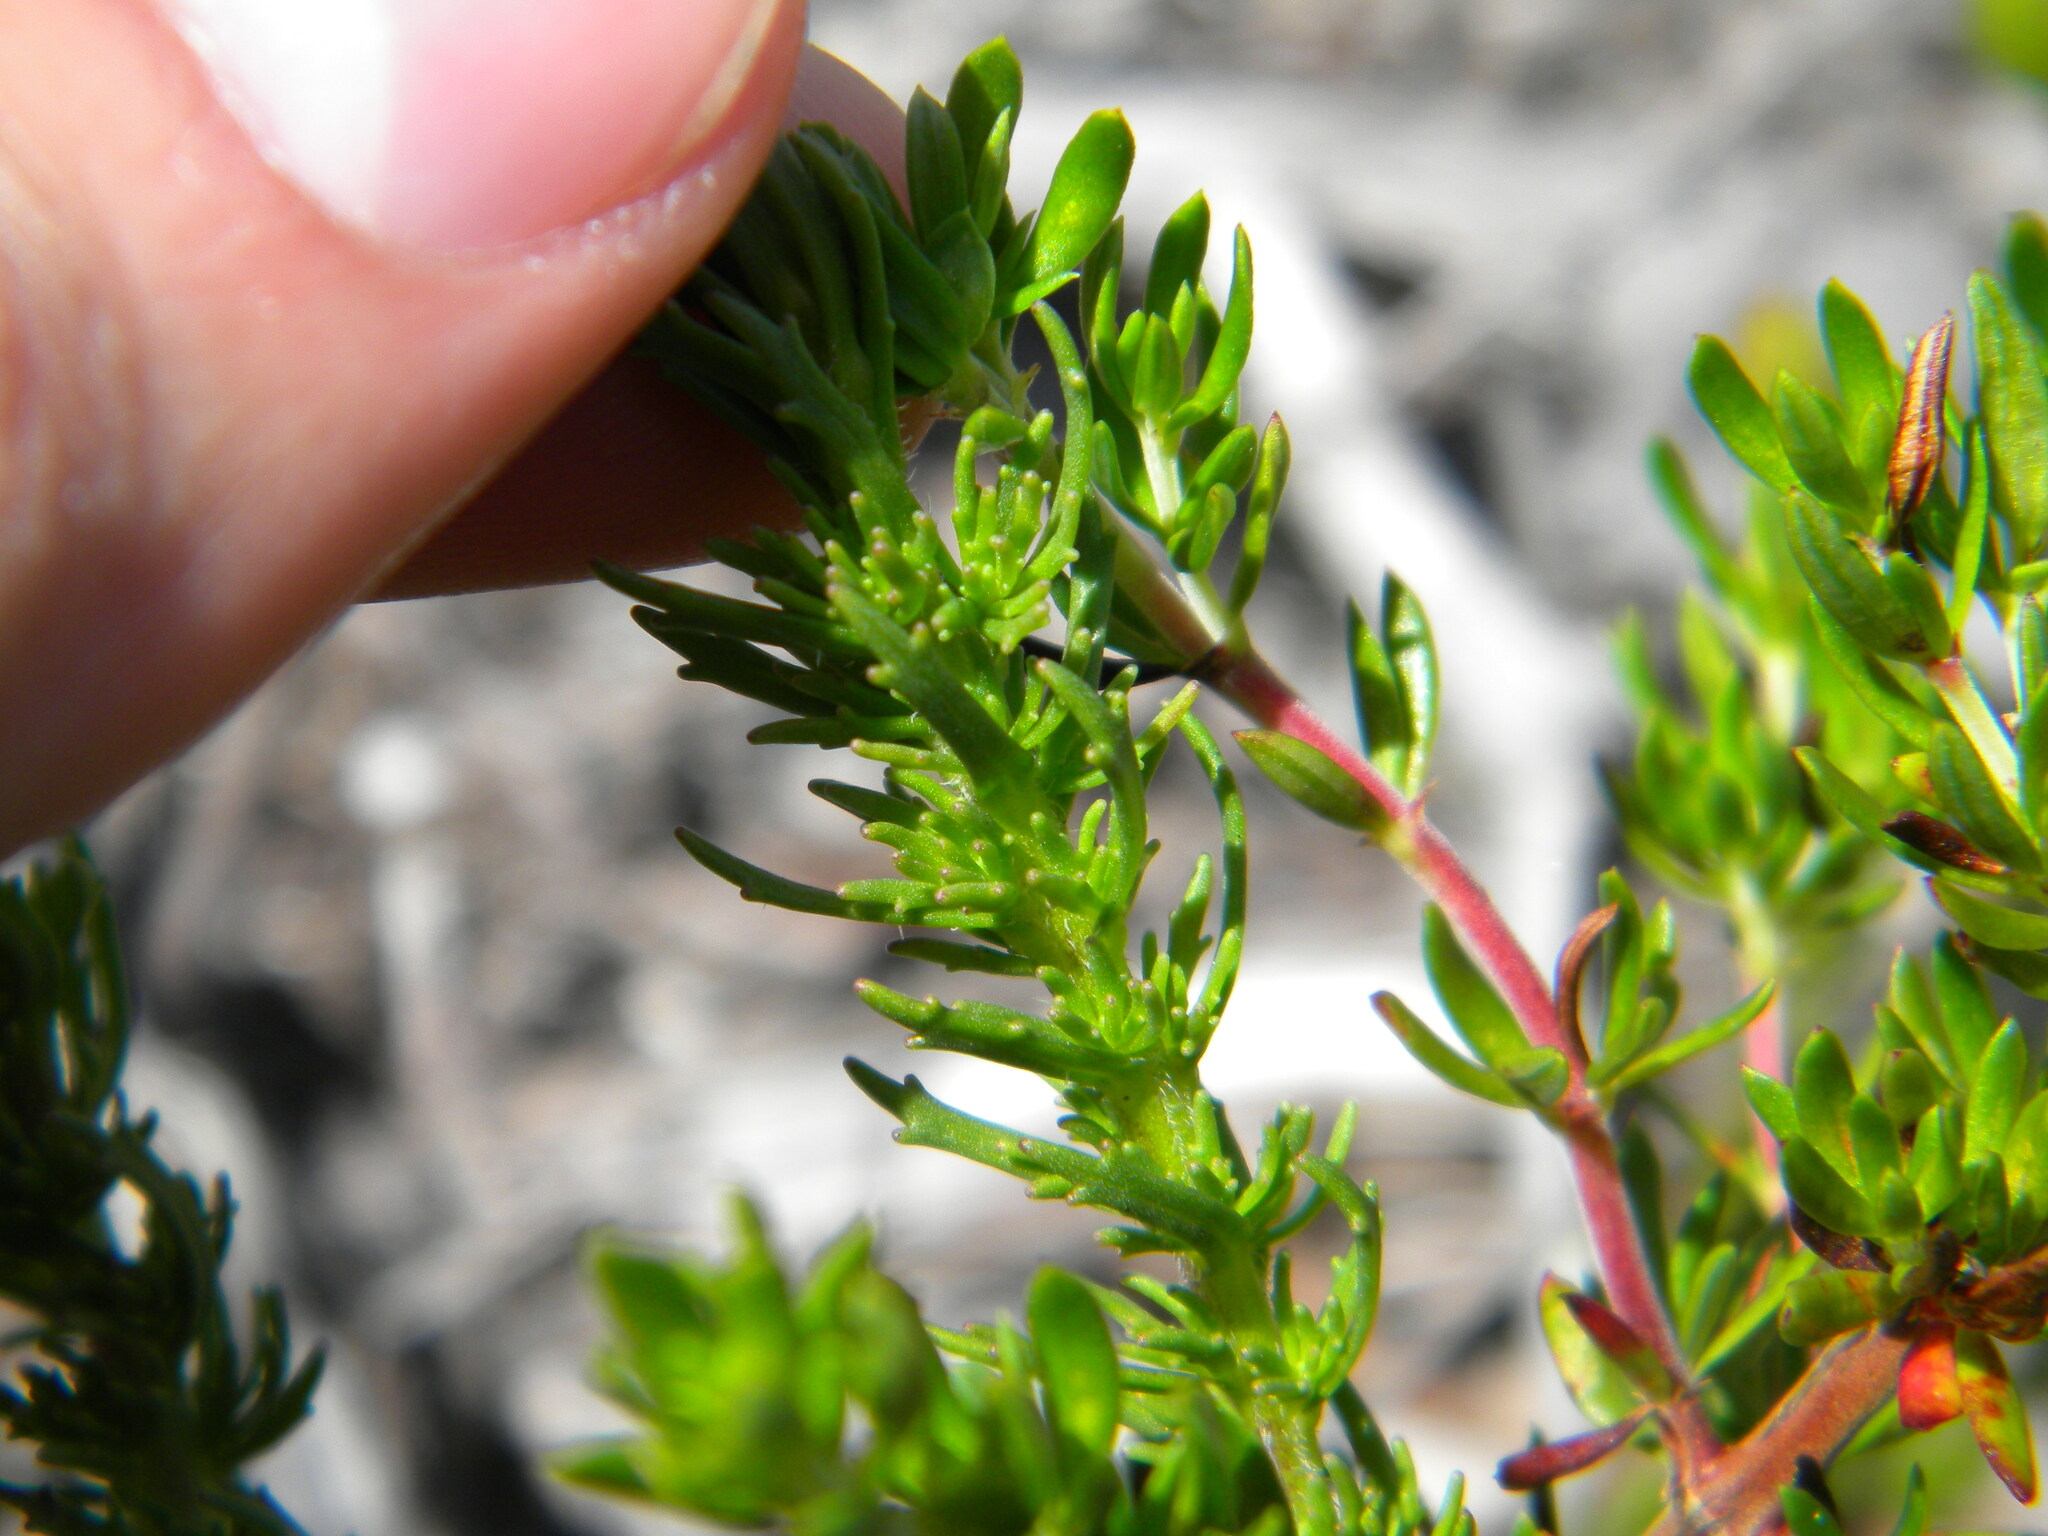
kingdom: Plantae
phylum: Tracheophyta
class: Magnoliopsida
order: Lamiales
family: Scrophulariaceae
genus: Dischisma
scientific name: Dischisma ciliatum
